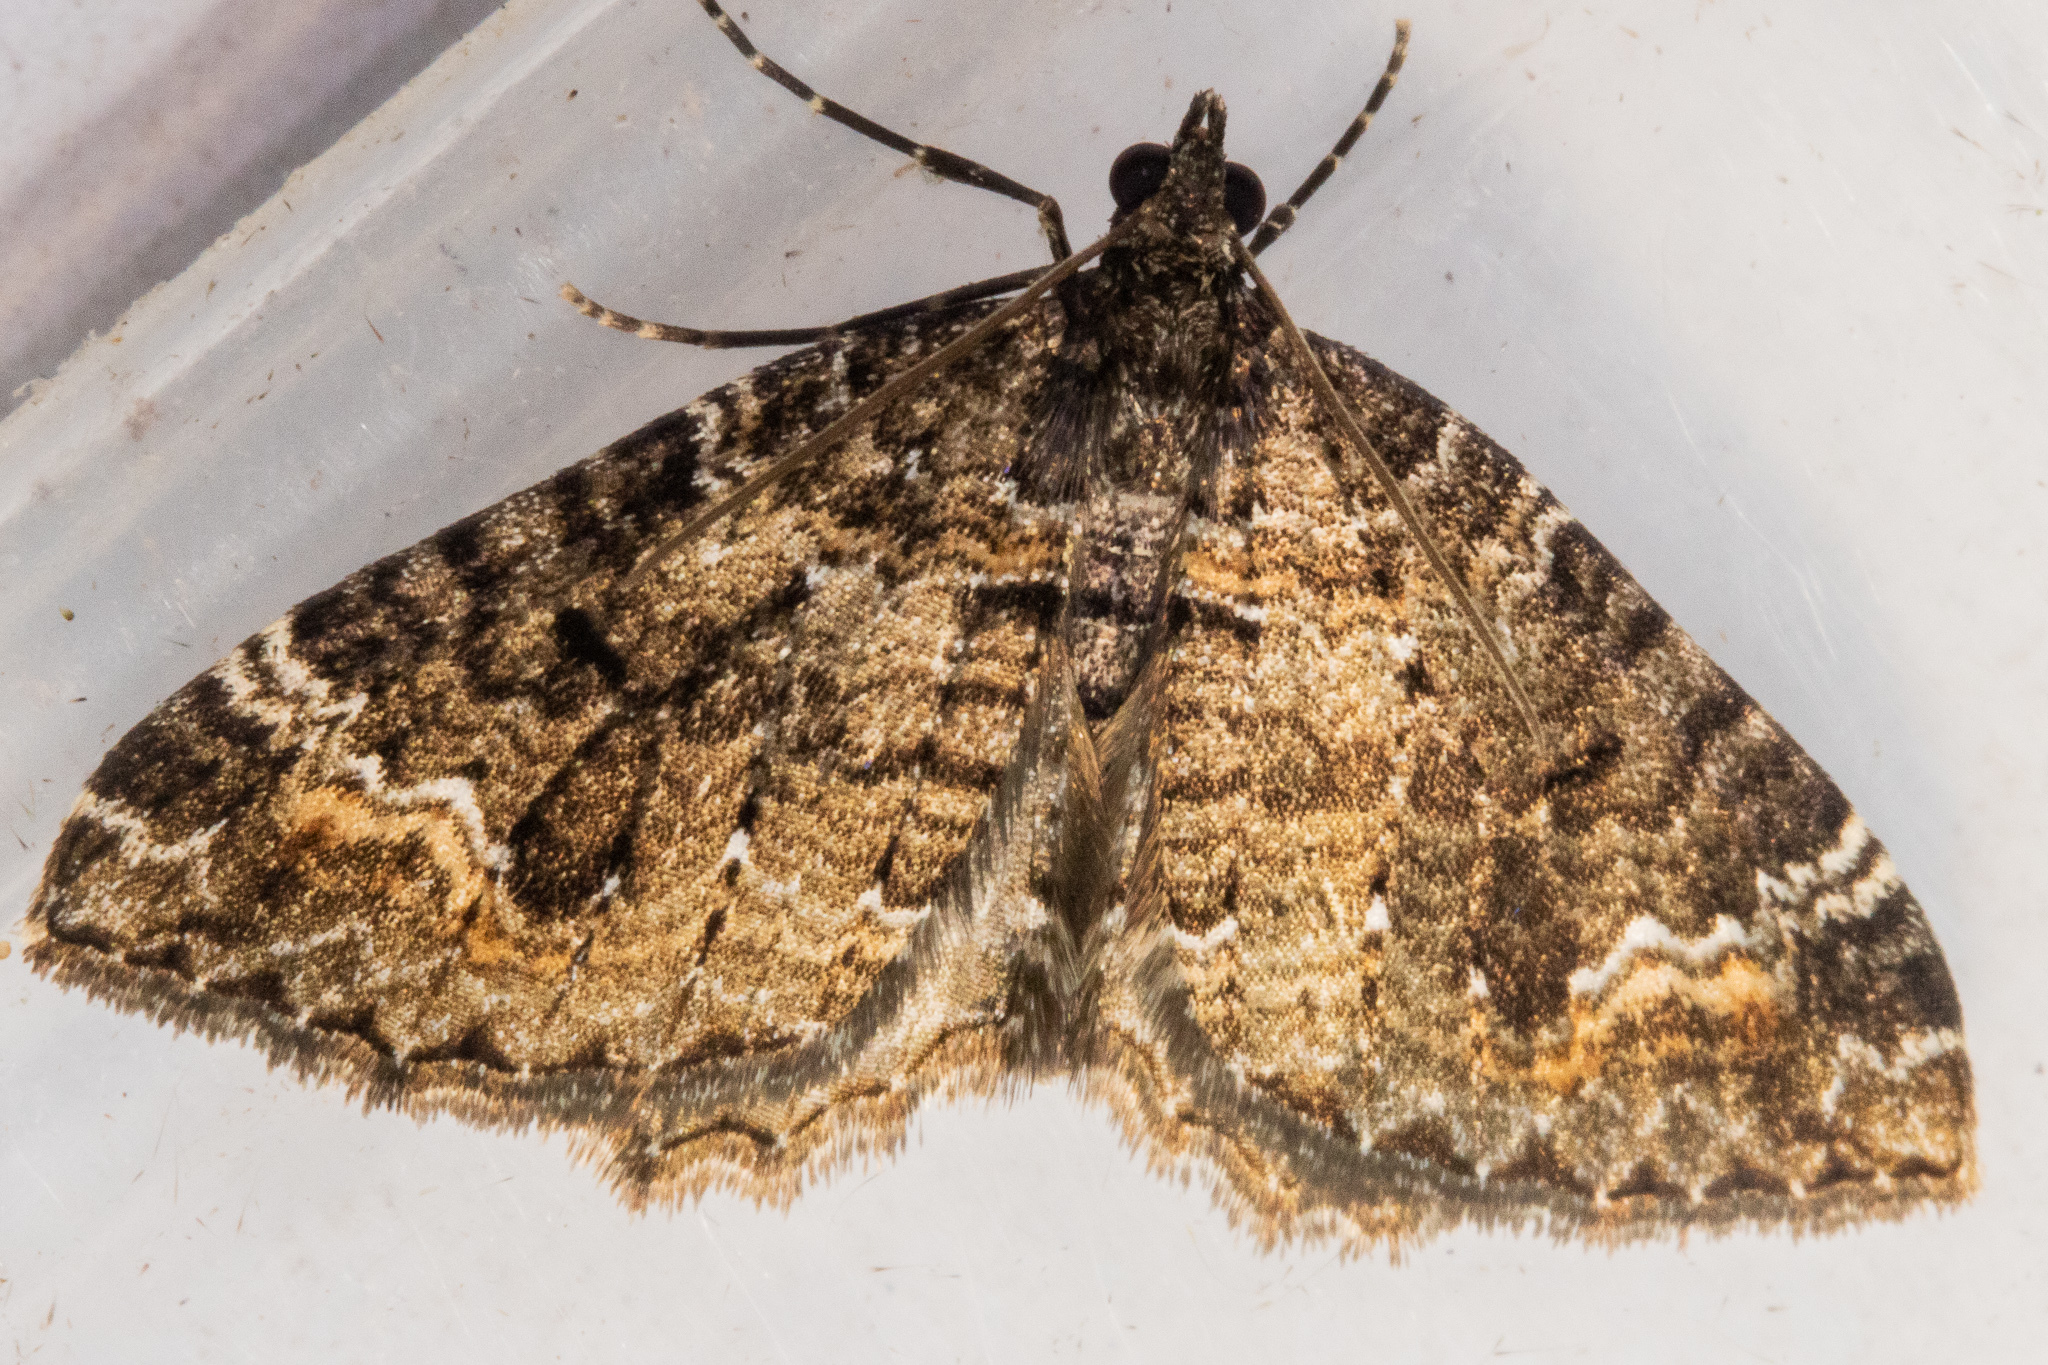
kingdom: Animalia
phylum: Arthropoda
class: Insecta
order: Lepidoptera
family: Geometridae
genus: Hydriomena
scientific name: Hydriomena hemizona
